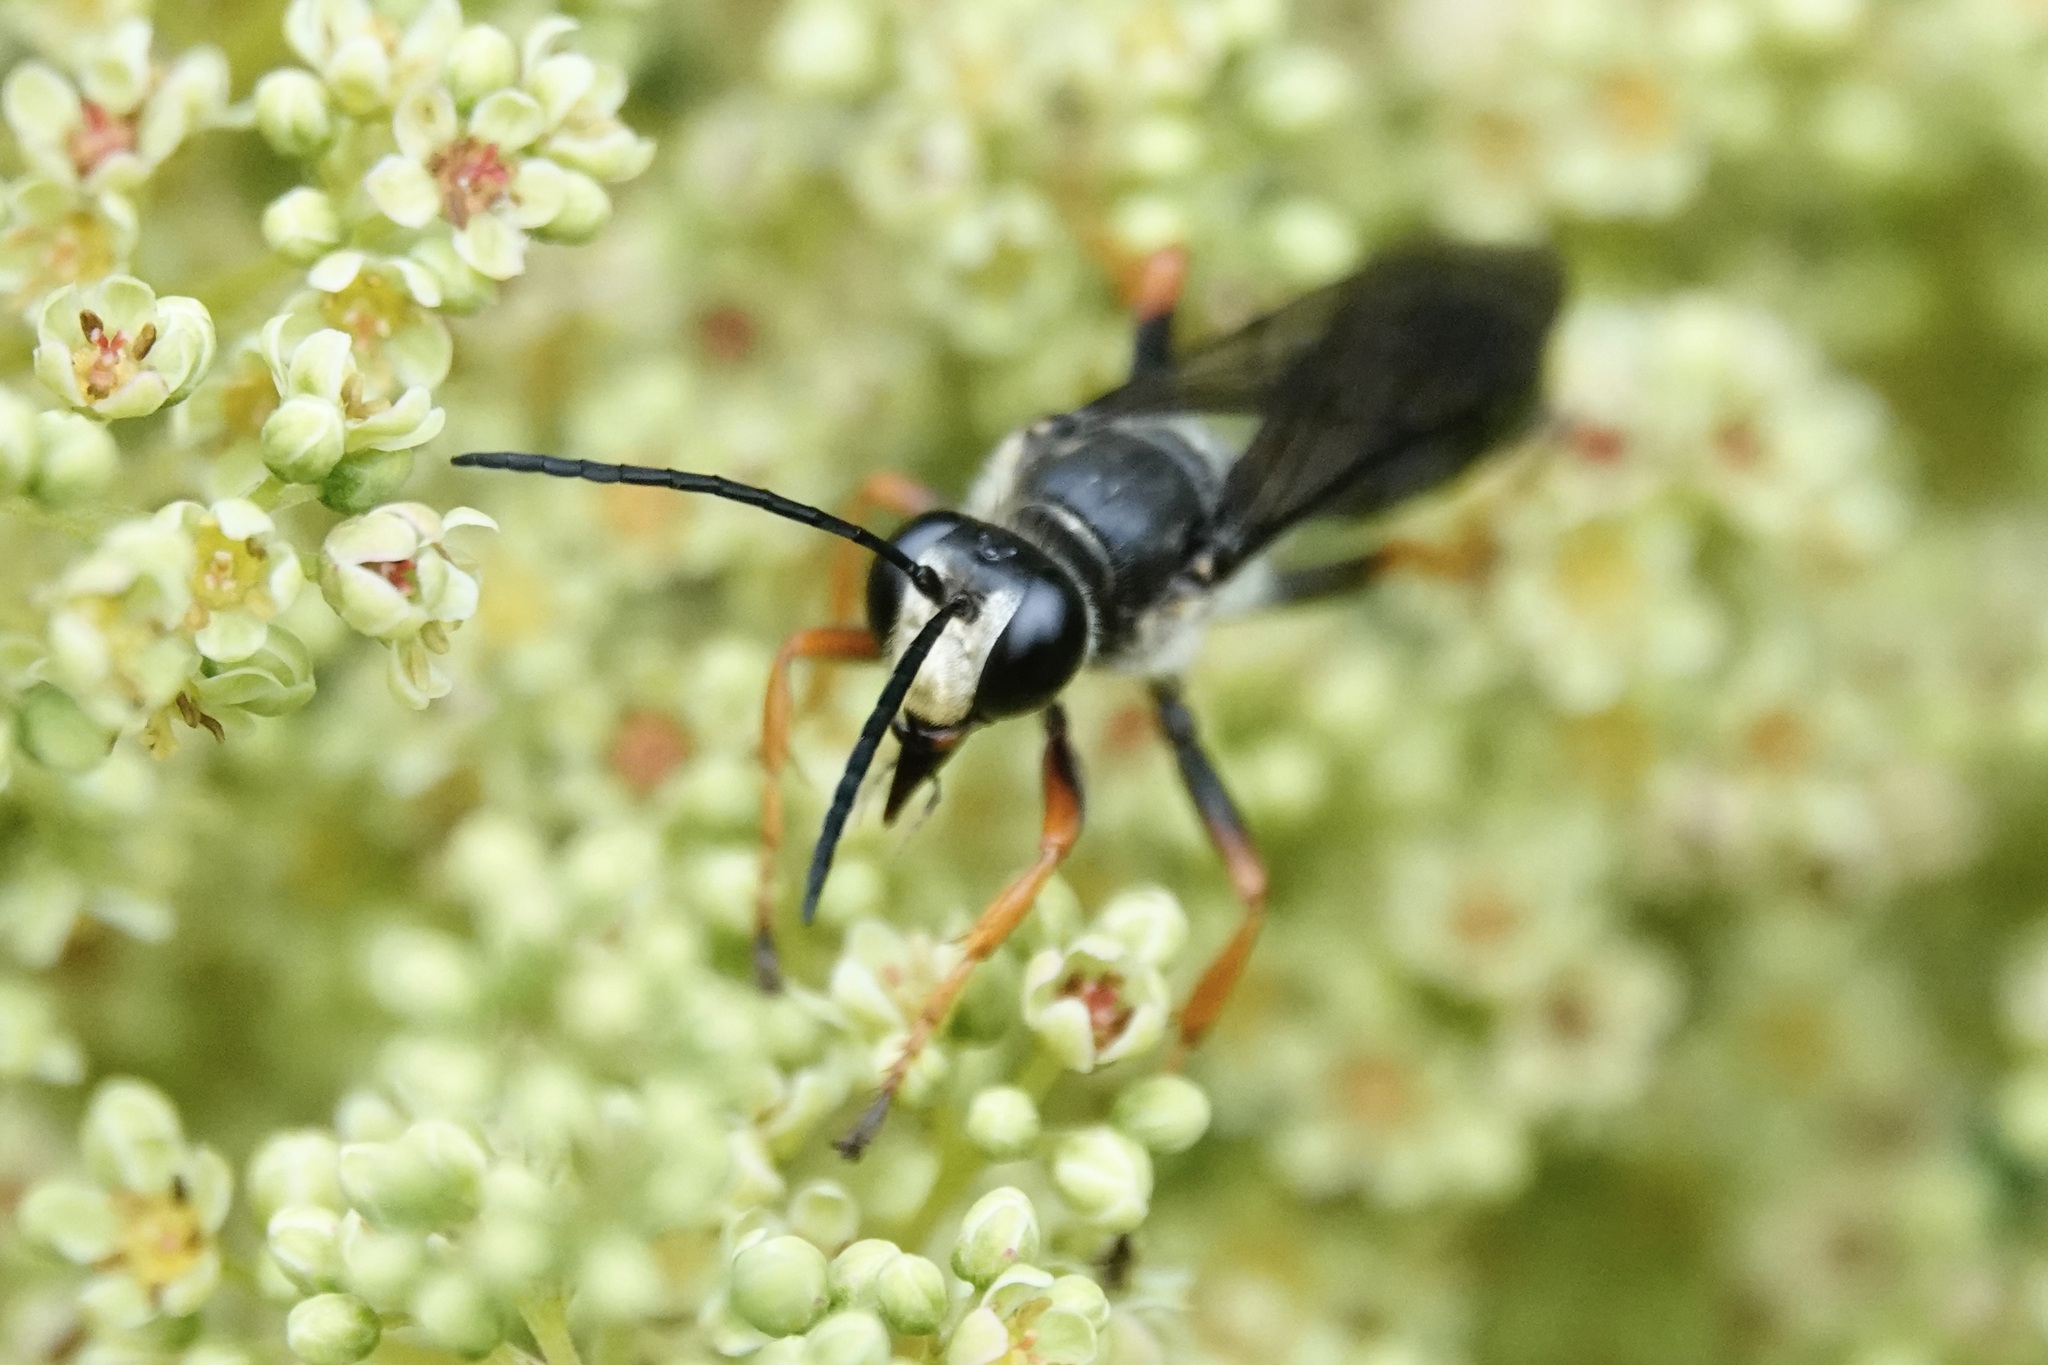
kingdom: Animalia
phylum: Arthropoda
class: Insecta
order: Hymenoptera
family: Sphecidae
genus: Sphex
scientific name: Sphex nudus
